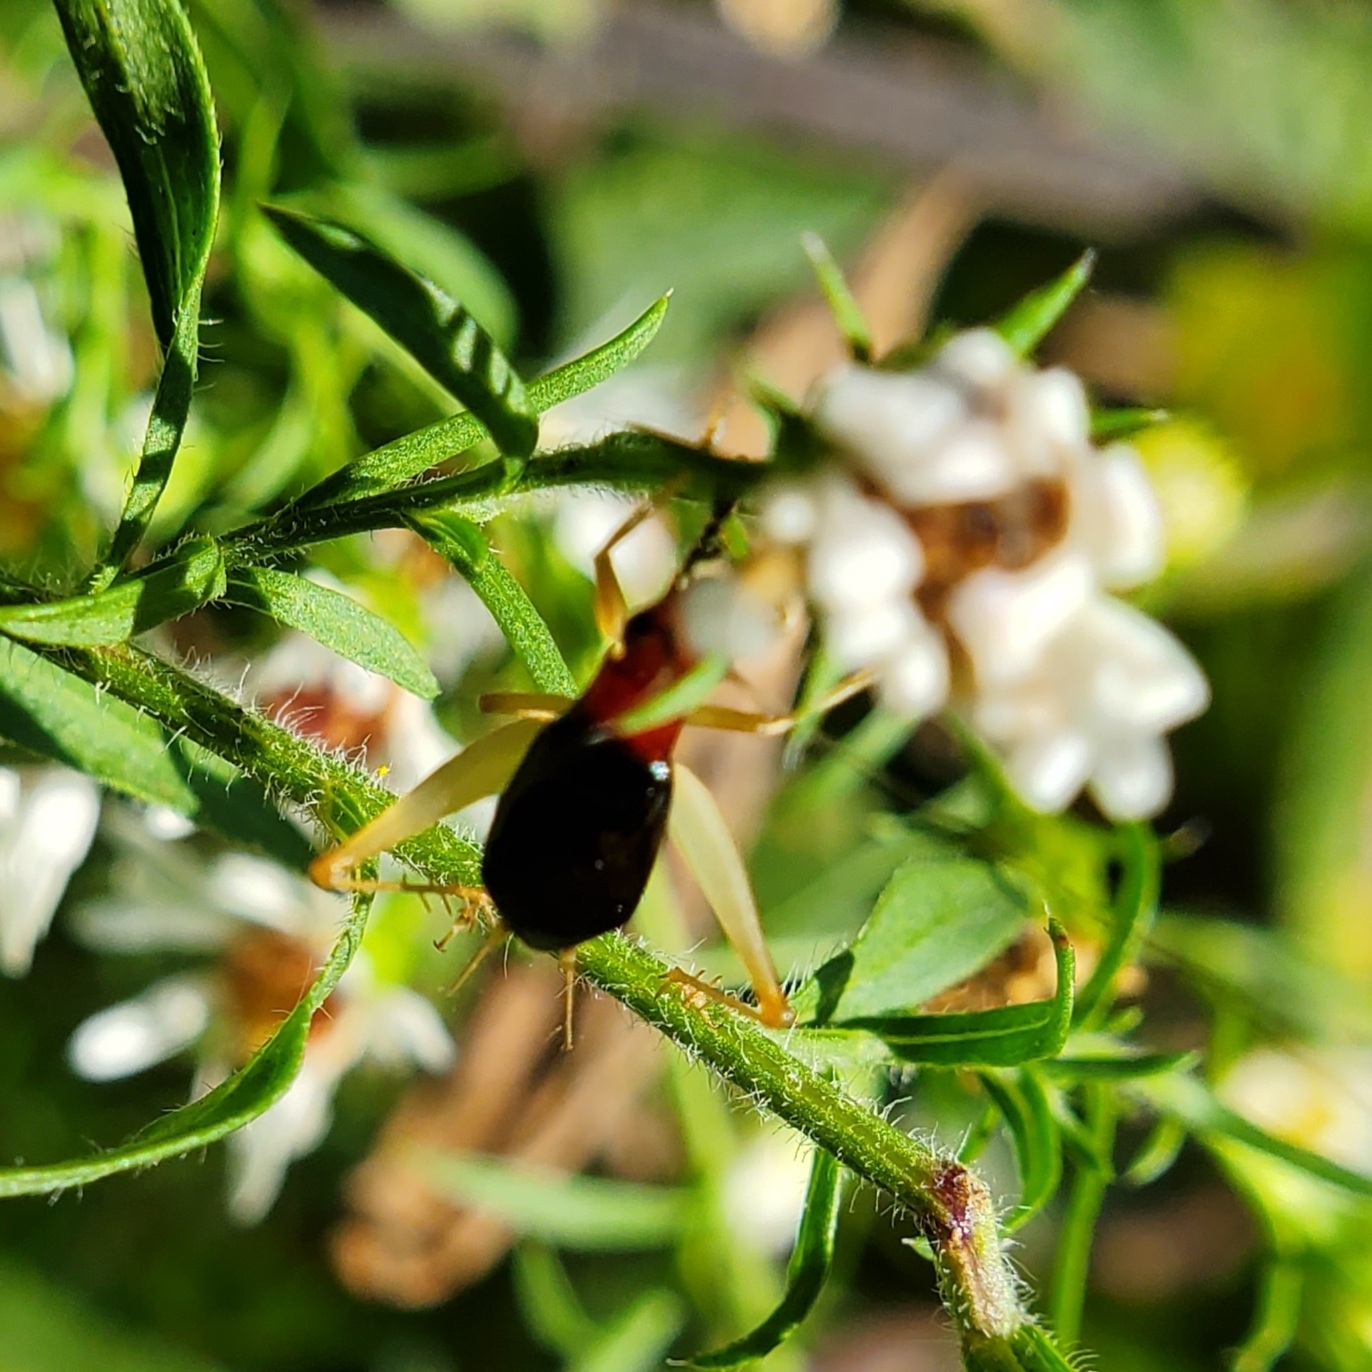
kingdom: Animalia
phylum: Arthropoda
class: Insecta
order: Orthoptera
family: Trigonidiidae
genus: Phyllopalpus
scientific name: Phyllopalpus pulchellus
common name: Handsome trig
